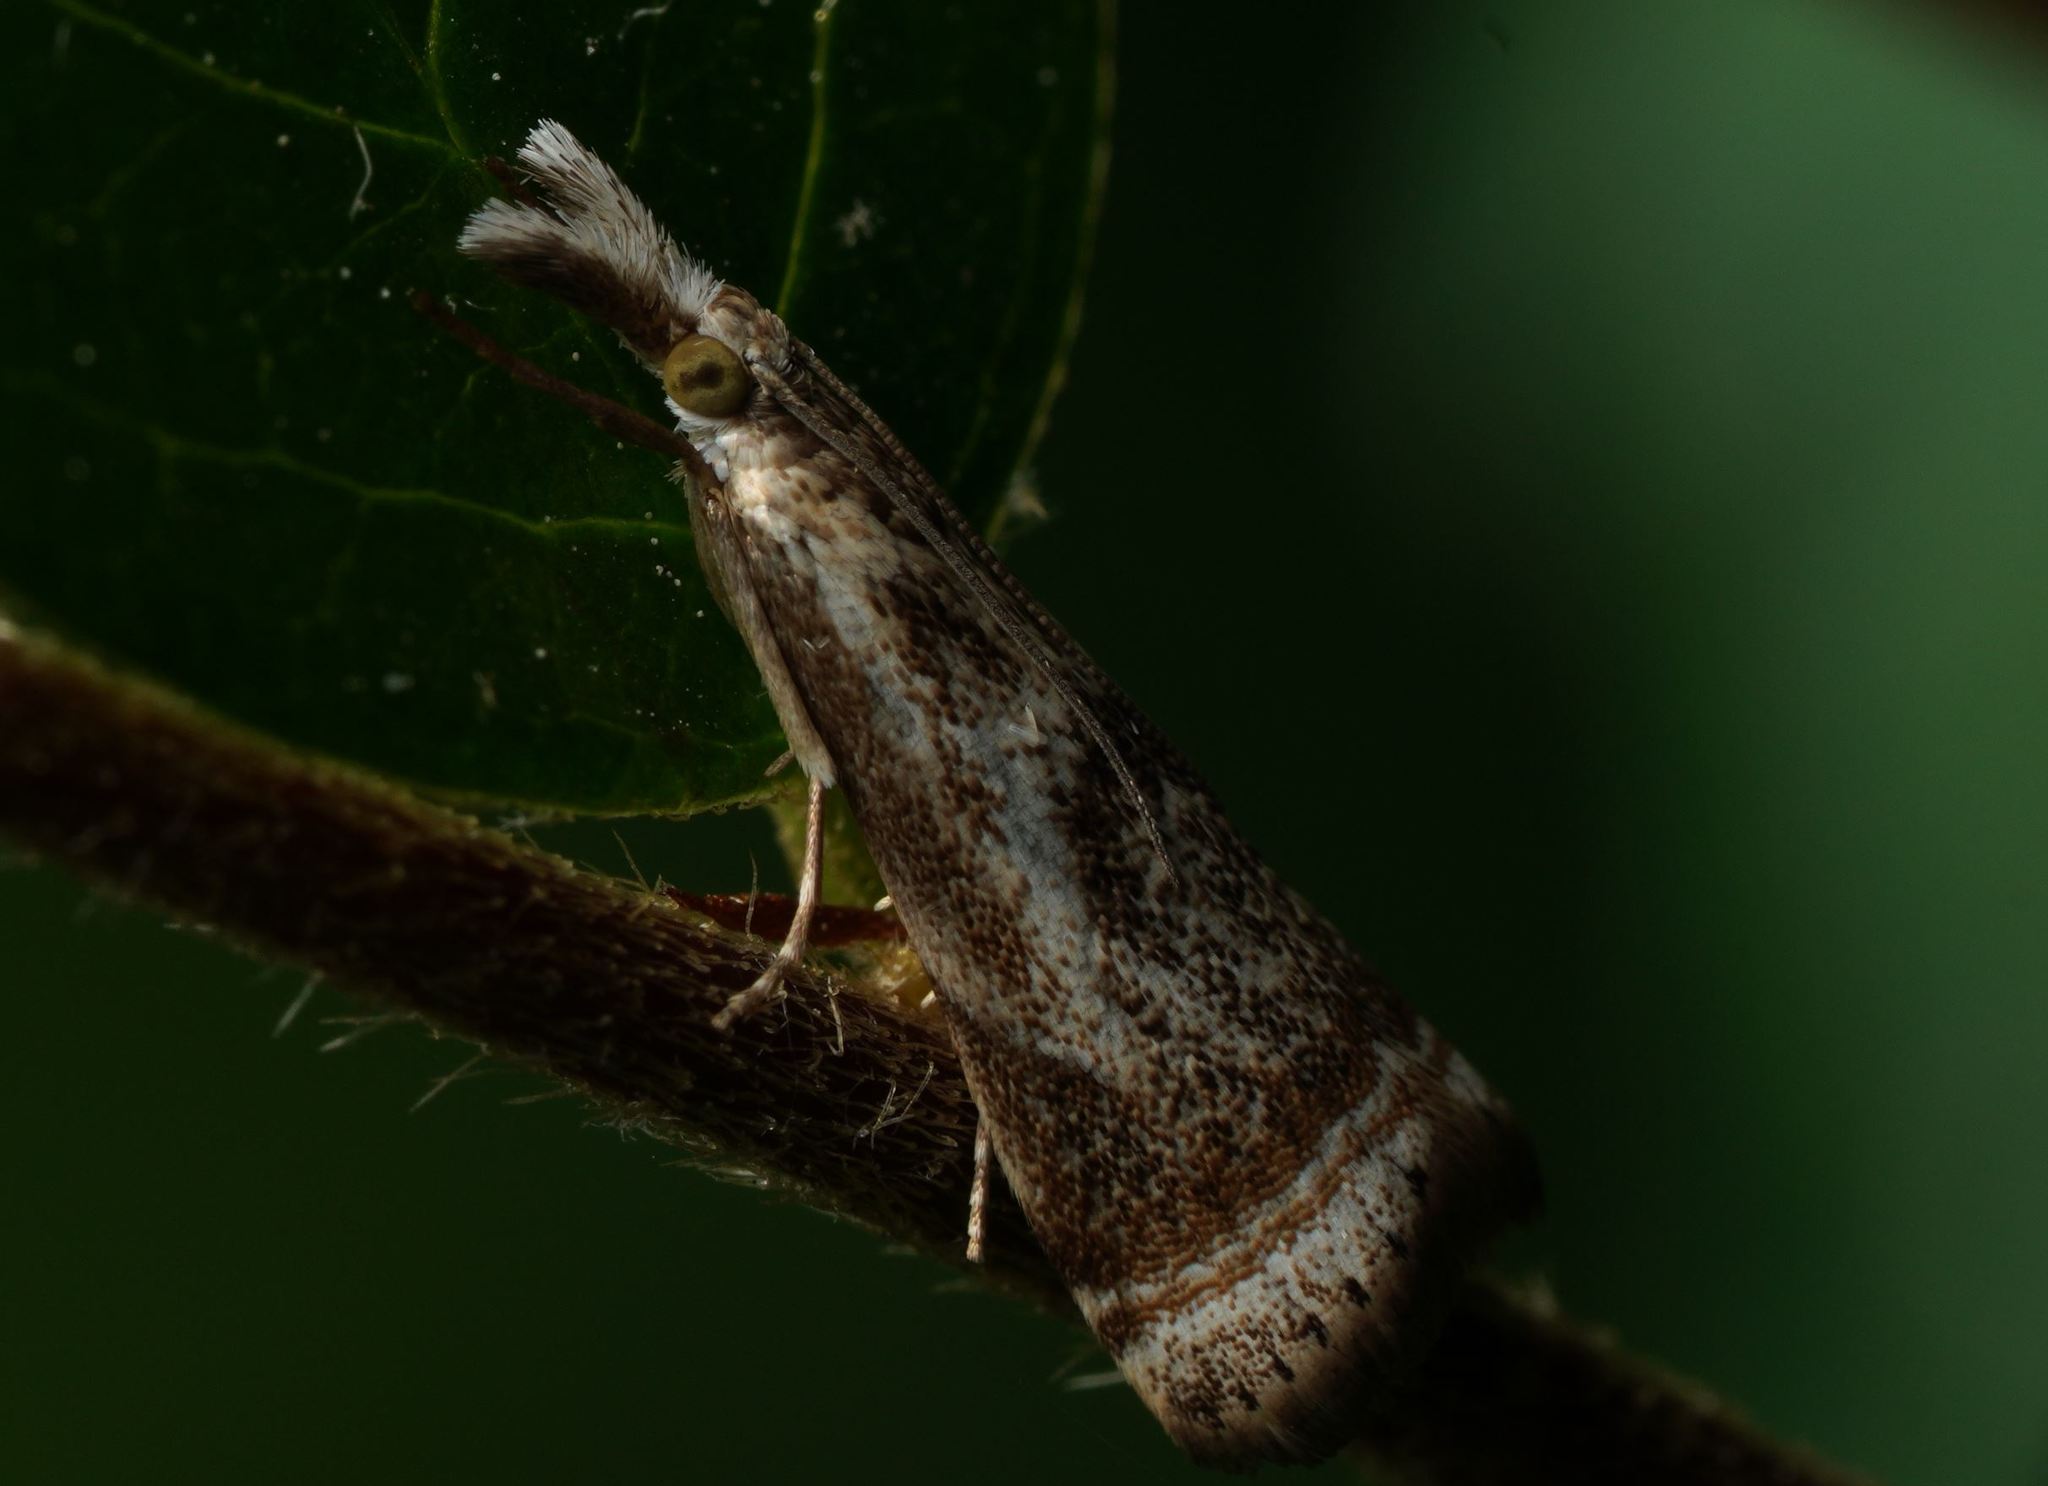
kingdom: Animalia
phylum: Arthropoda
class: Insecta
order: Lepidoptera
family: Crambidae
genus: Microcrambus
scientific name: Microcrambus elegans
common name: Elegant grass-veneer
